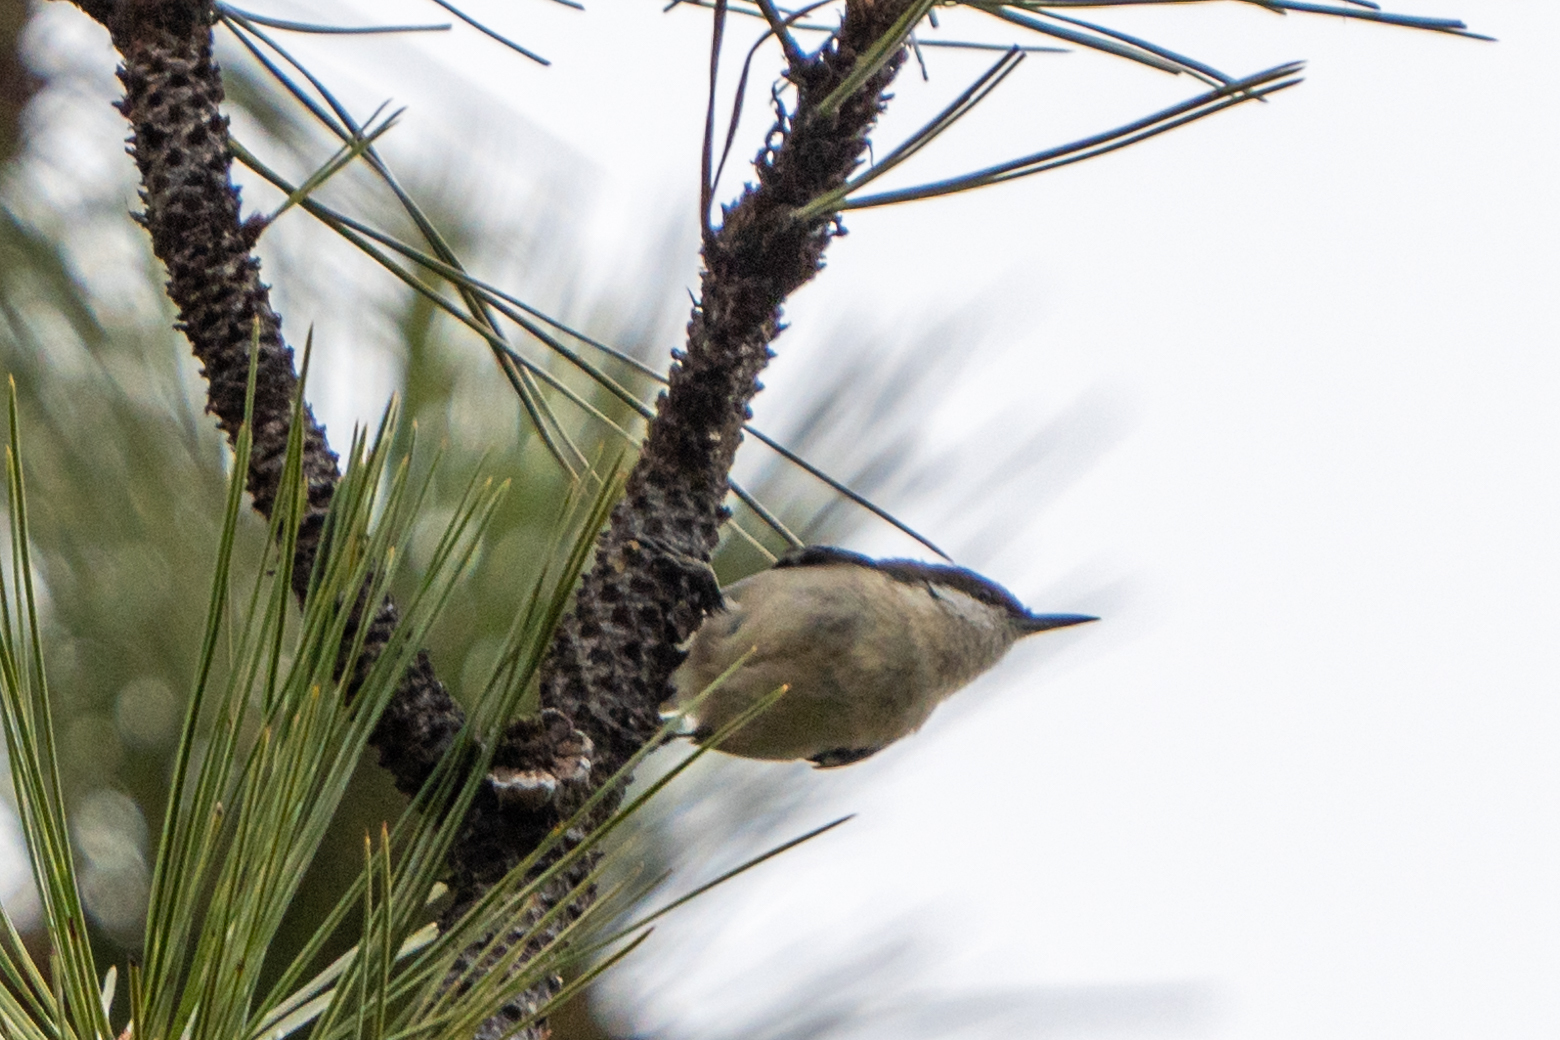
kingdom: Animalia
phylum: Chordata
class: Aves
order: Passeriformes
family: Sittidae
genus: Sitta
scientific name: Sitta pygmaea
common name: Pygmy nuthatch
